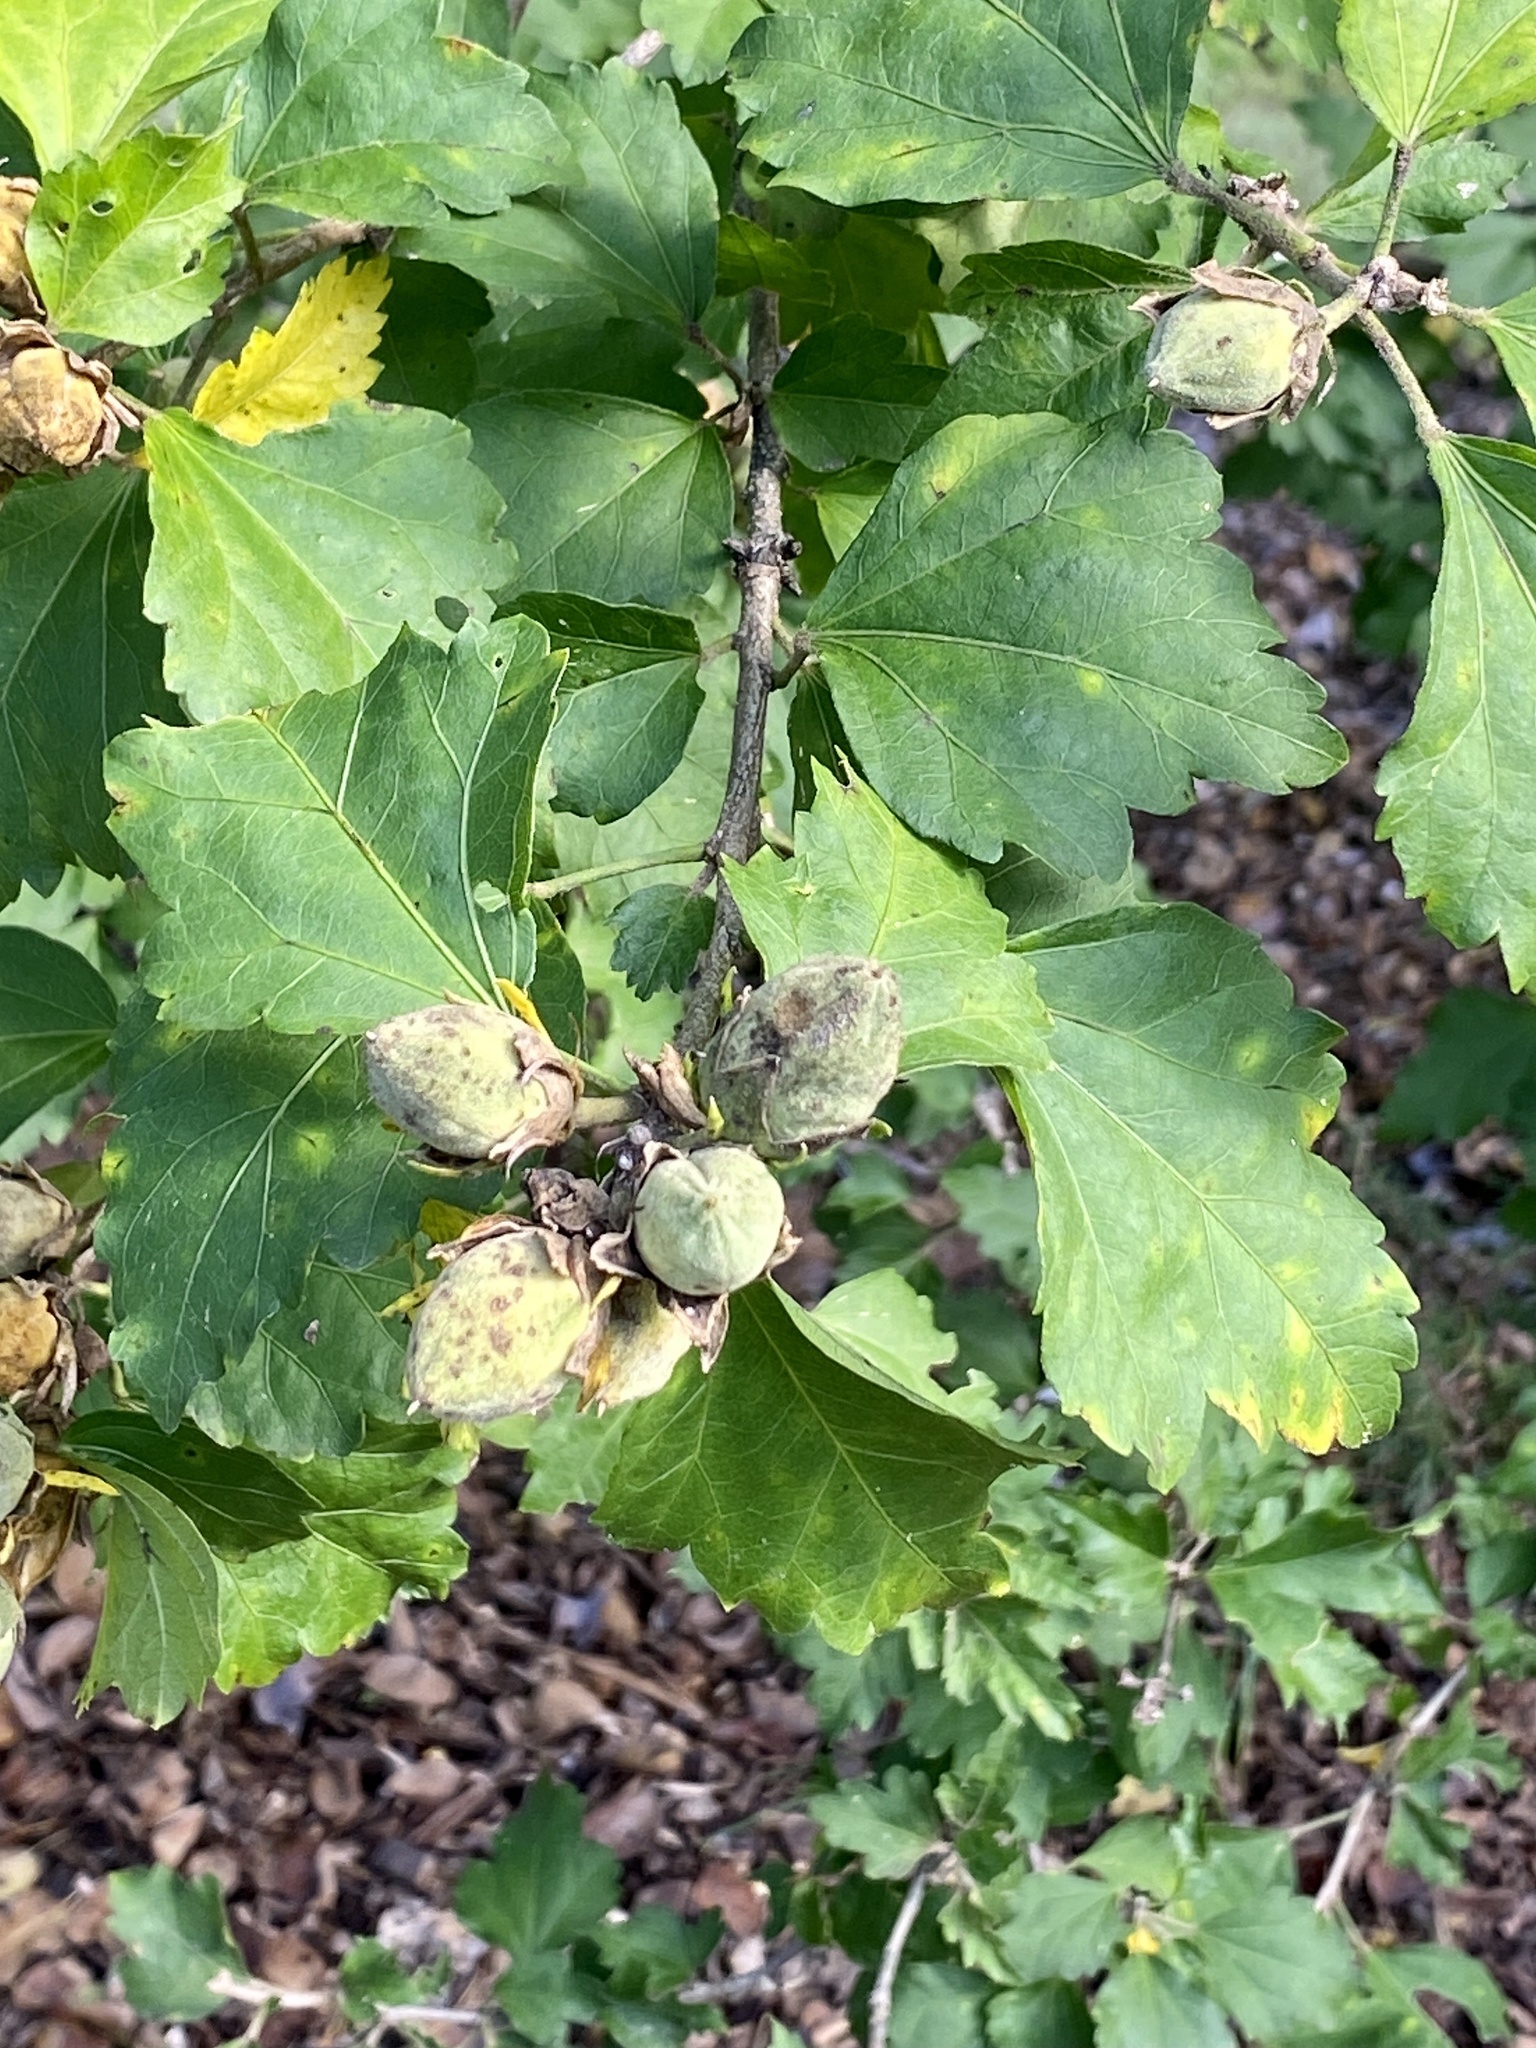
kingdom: Plantae
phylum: Tracheophyta
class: Magnoliopsida
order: Malvales
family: Malvaceae
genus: Hibiscus
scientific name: Hibiscus syriacus
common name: Syrian ketmia
